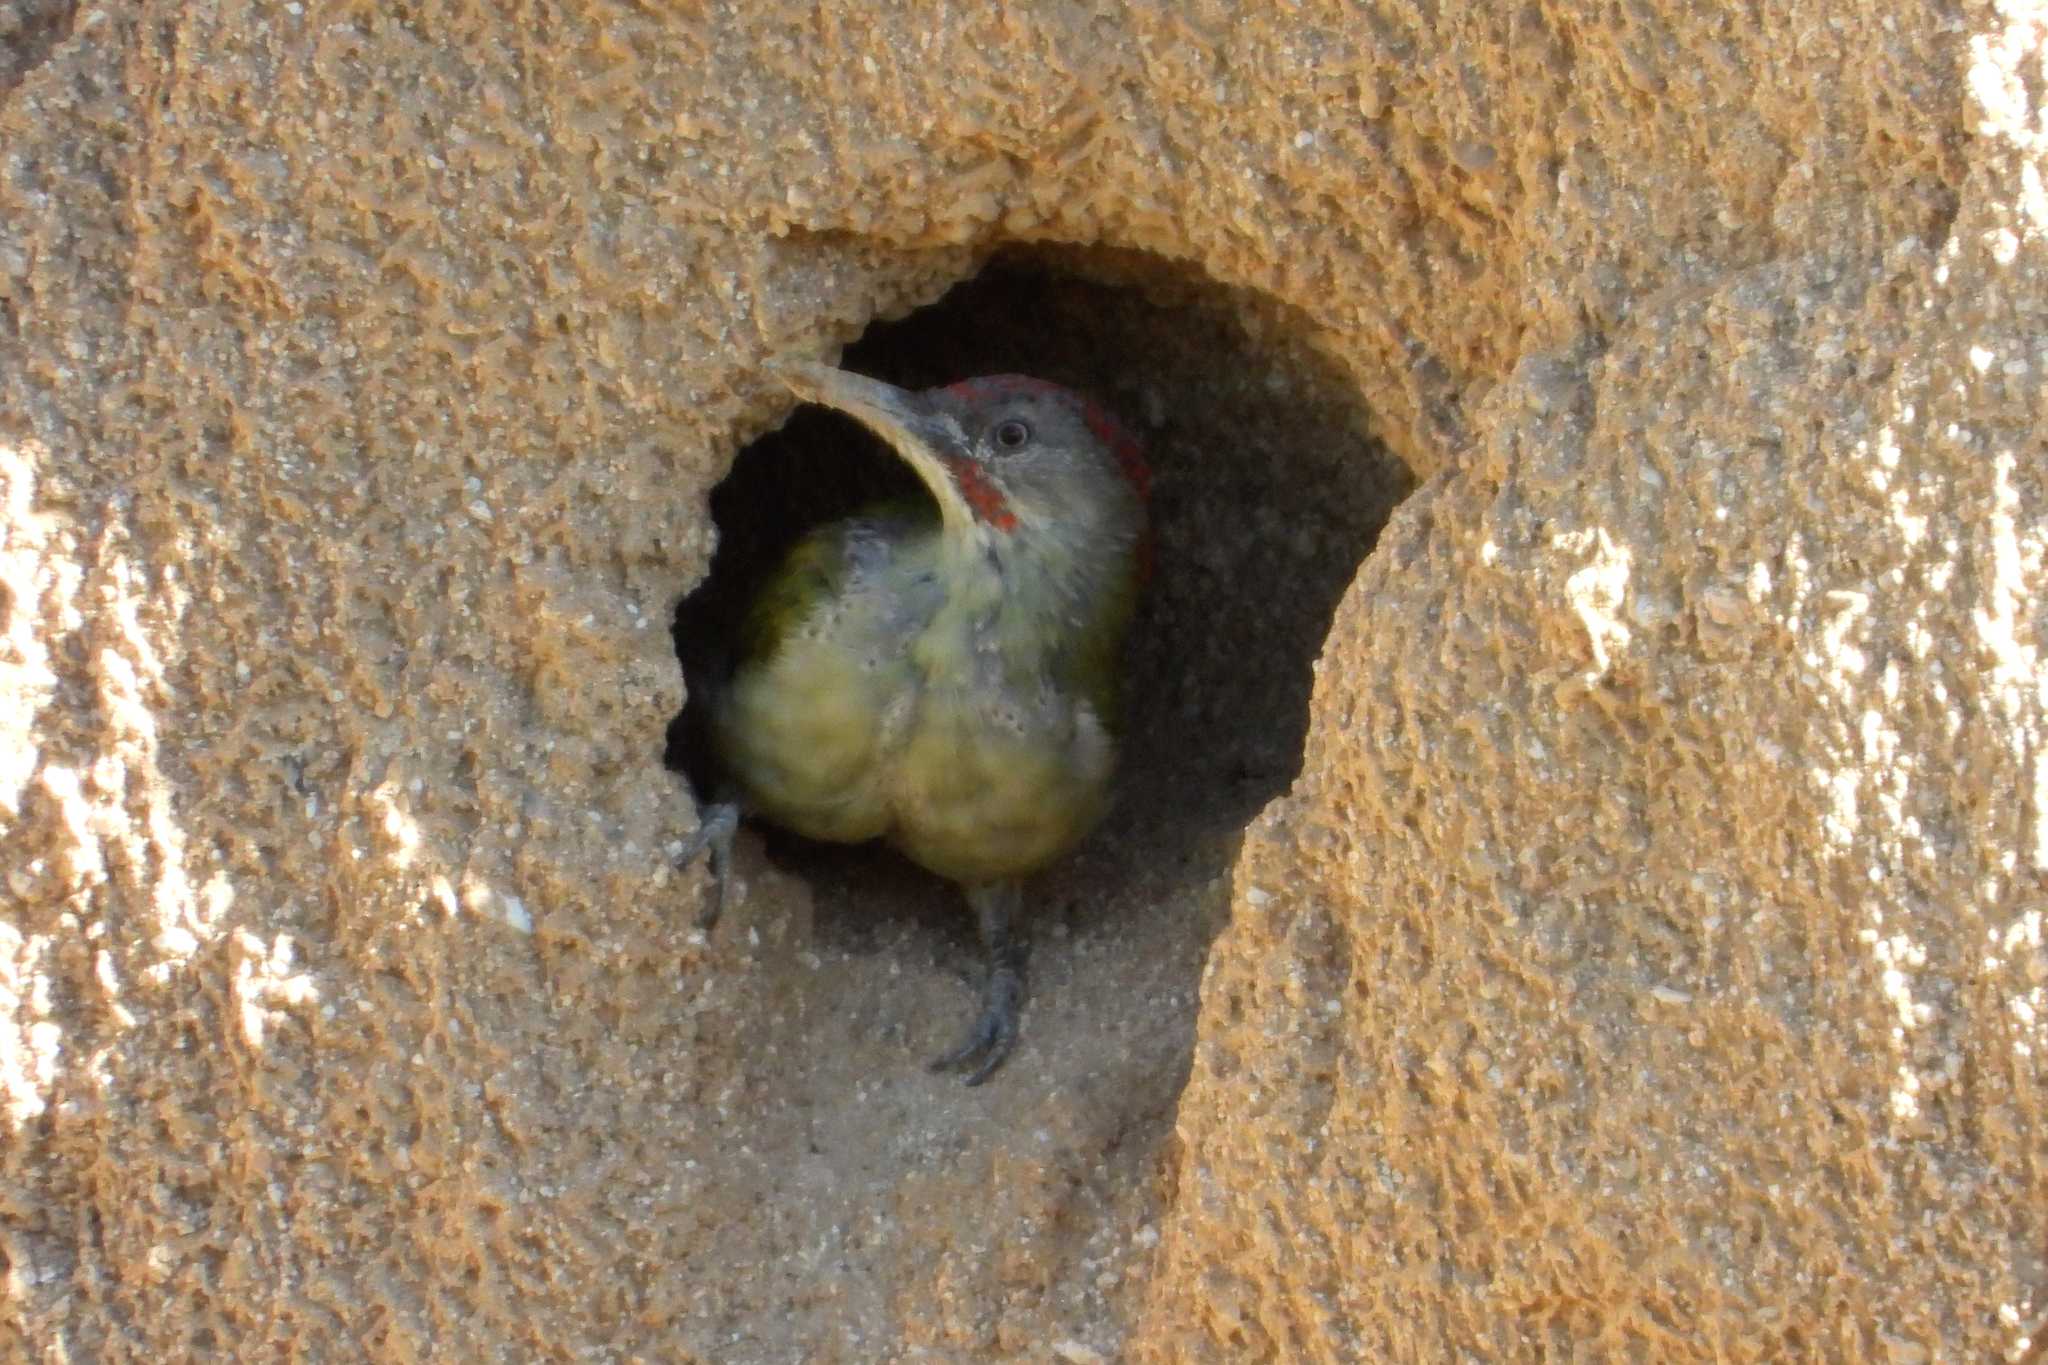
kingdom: Animalia
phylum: Chordata
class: Aves
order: Piciformes
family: Picidae
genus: Picus
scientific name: Picus sharpei
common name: Iberian green woodpecker
